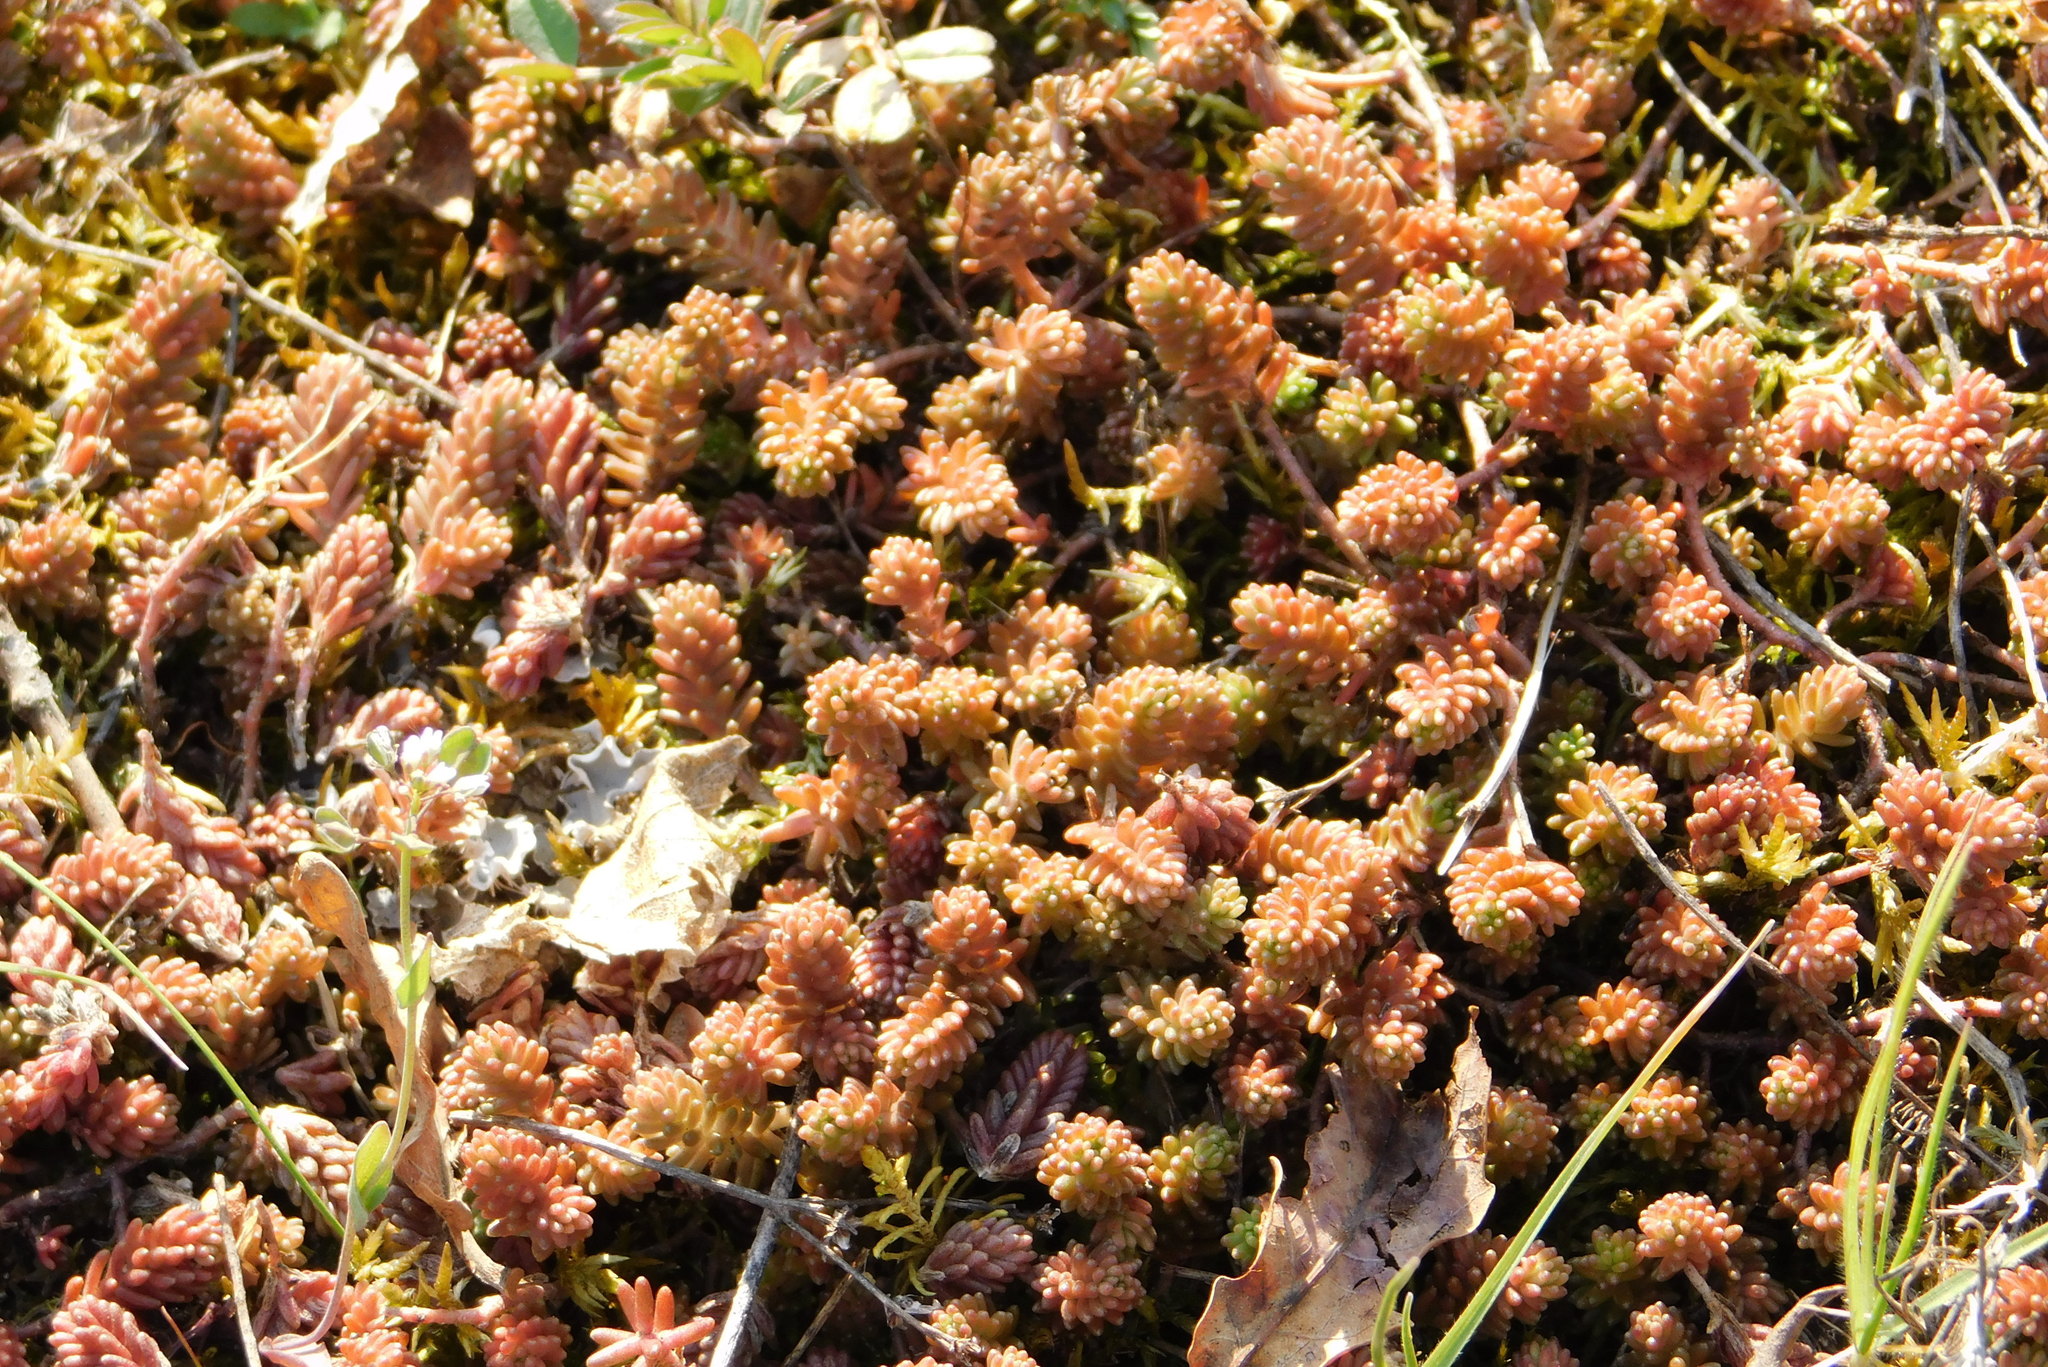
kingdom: Plantae
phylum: Tracheophyta
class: Magnoliopsida
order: Saxifragales
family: Crassulaceae
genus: Sedum
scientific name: Sedum sexangulare
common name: Tasteless stonecrop
